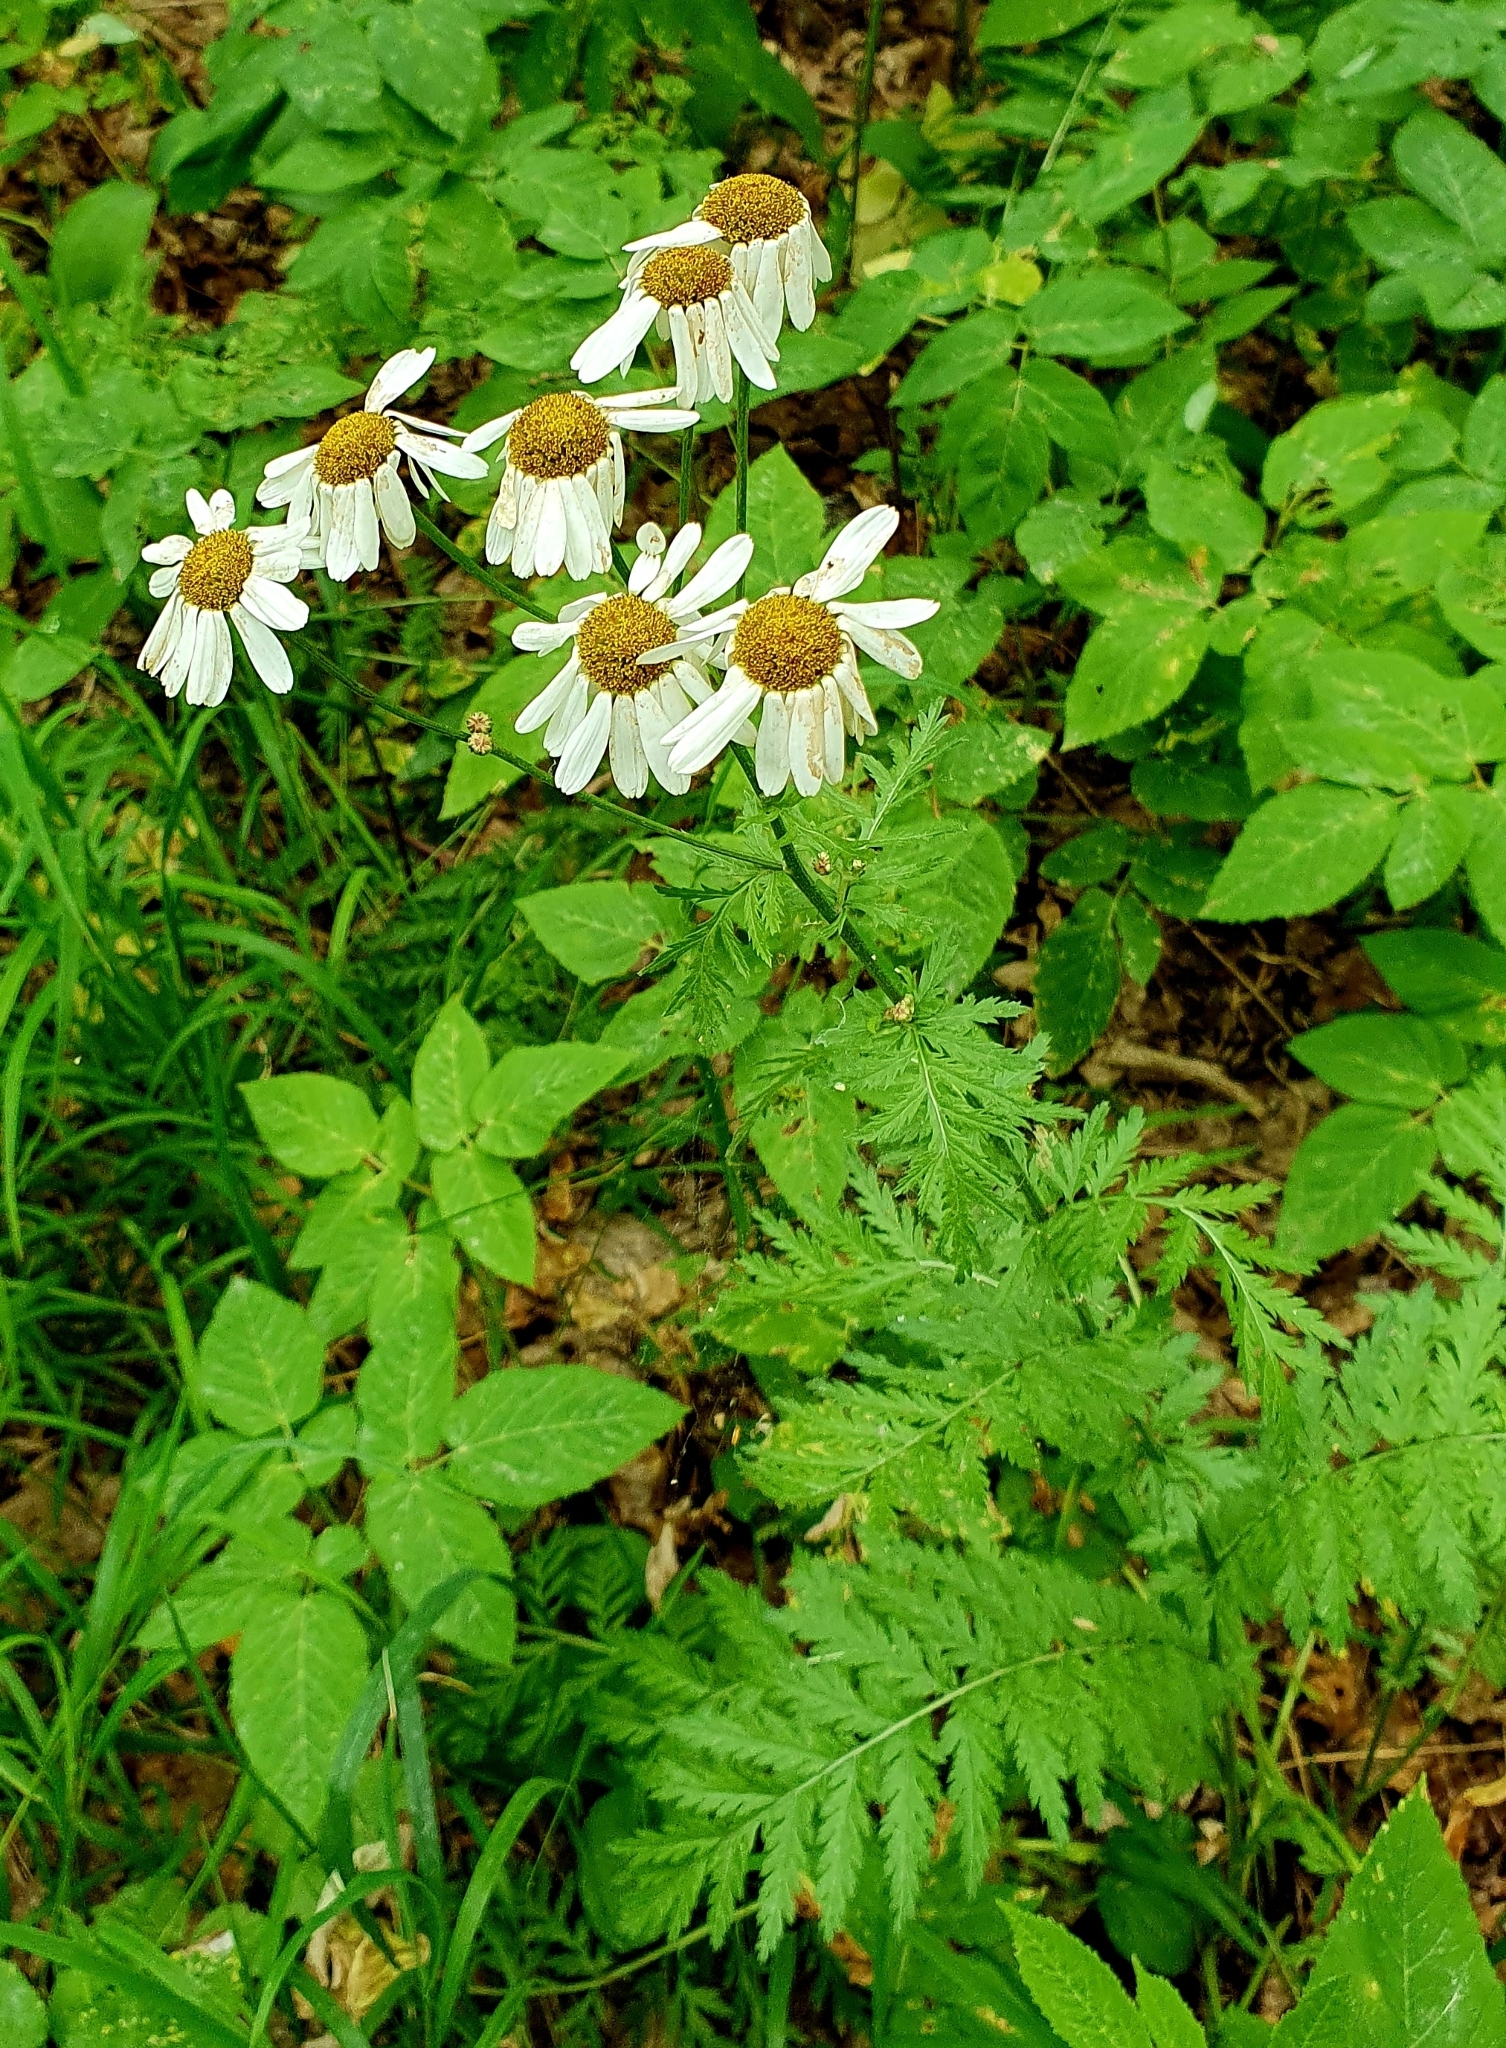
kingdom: Plantae
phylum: Tracheophyta
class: Magnoliopsida
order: Asterales
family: Asteraceae
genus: Tanacetum
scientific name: Tanacetum corymbosum
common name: Scentless feverfew
